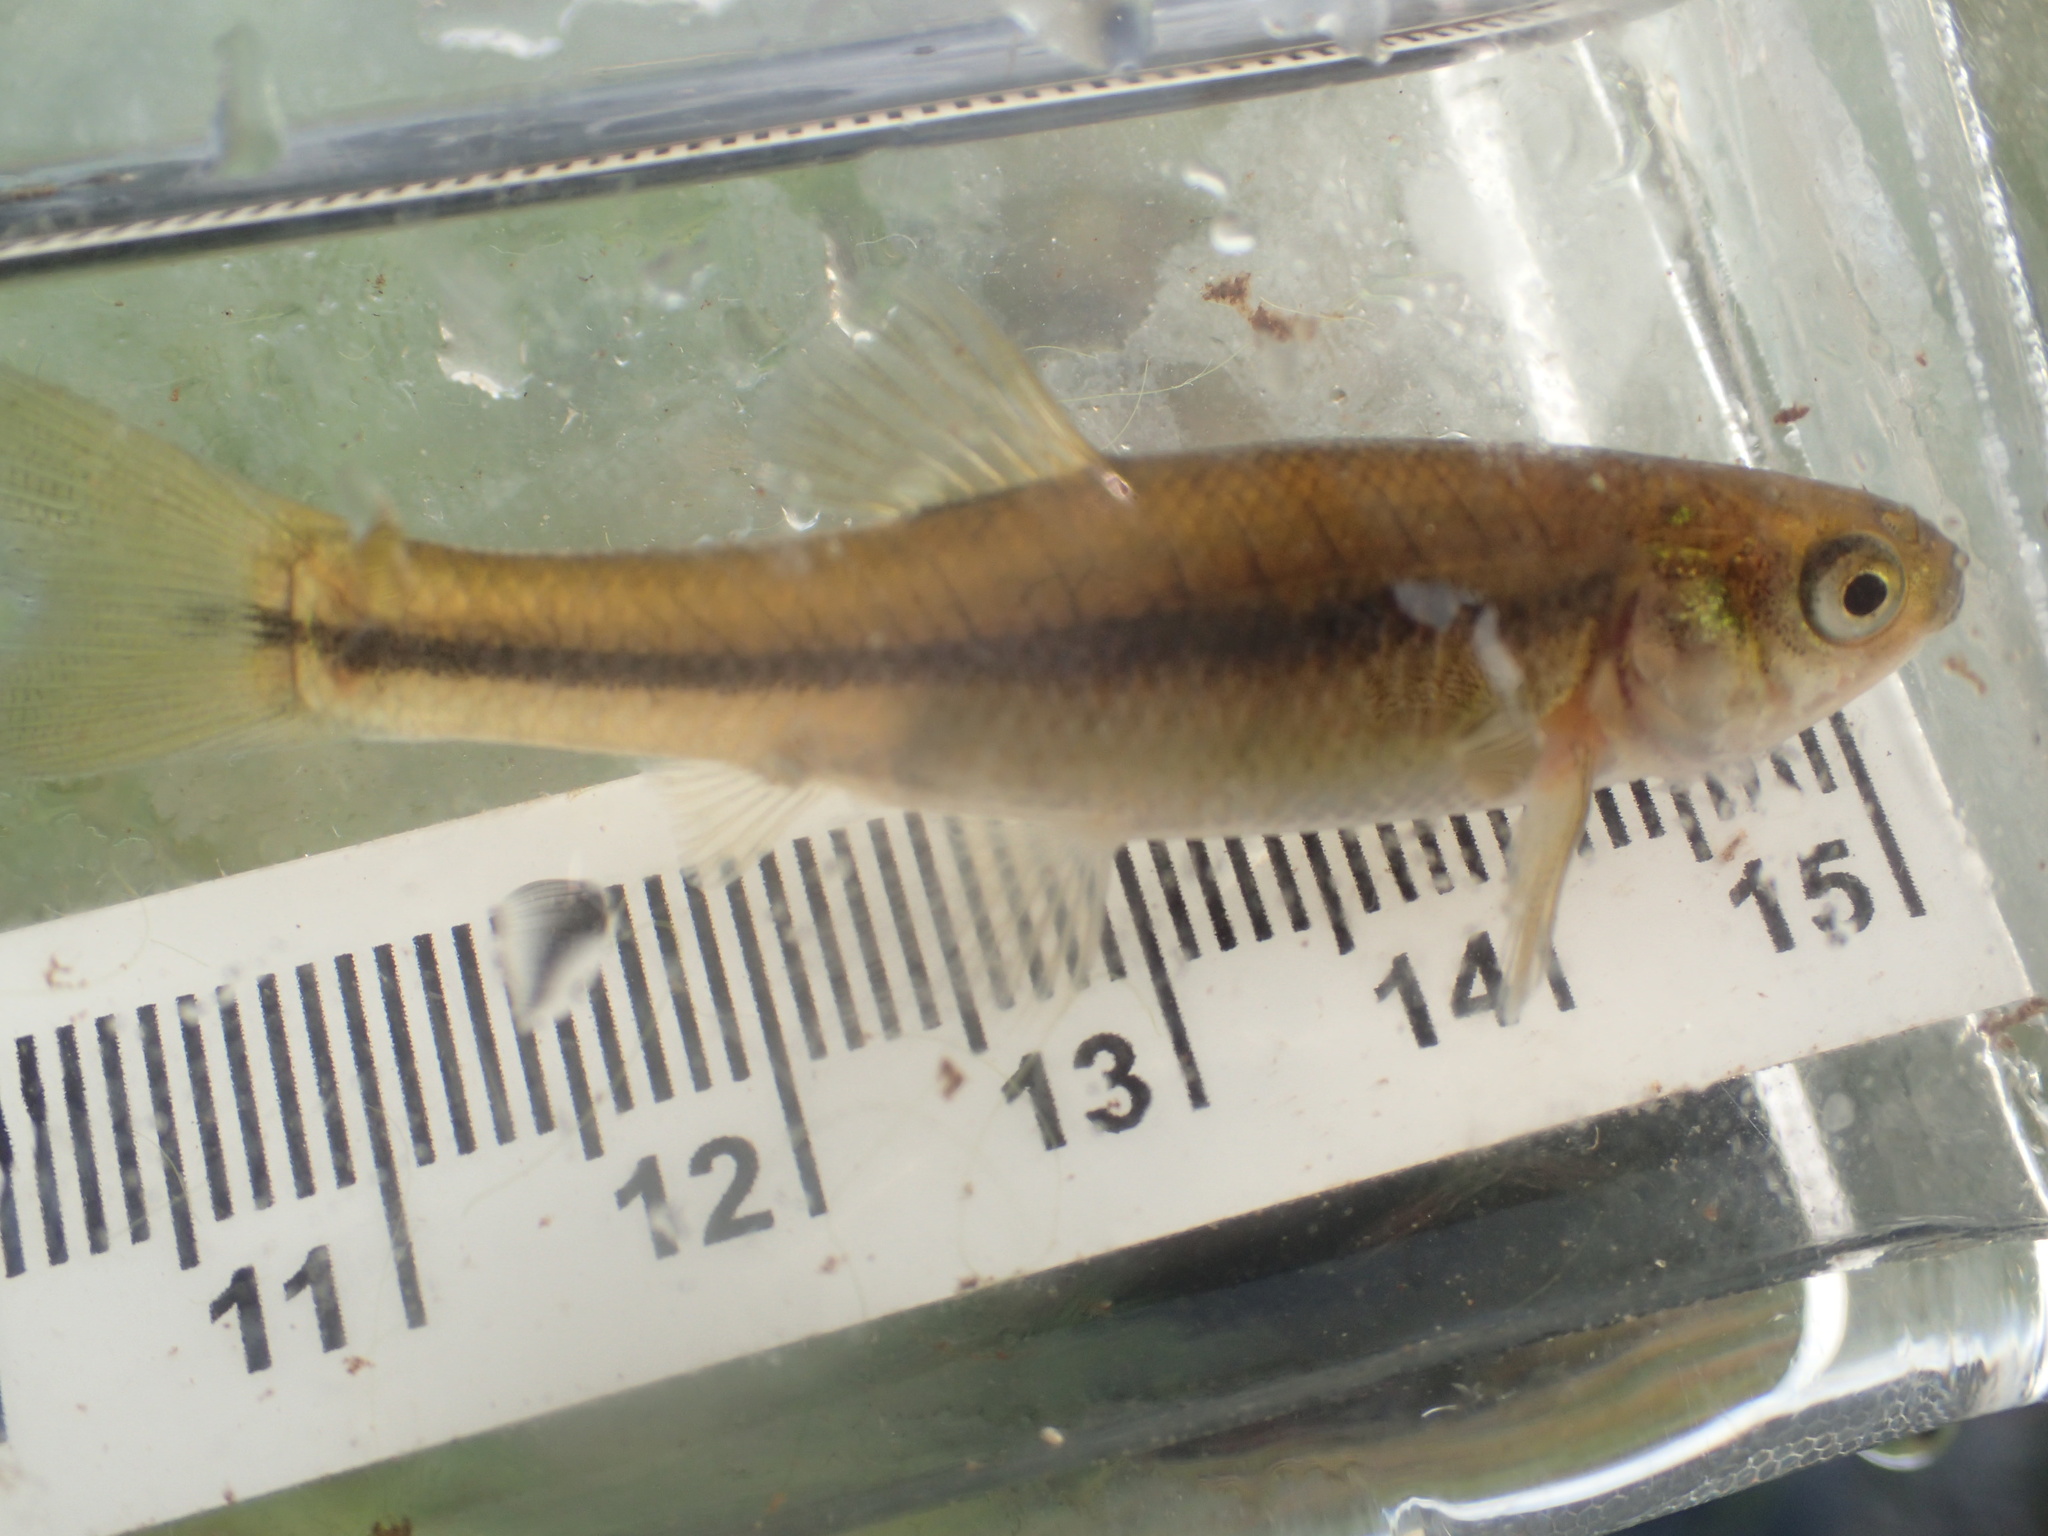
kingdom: Animalia
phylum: Chordata
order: Cypriniformes
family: Cyprinidae
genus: Pimephales
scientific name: Pimephales promelas
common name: Fathead minnow
